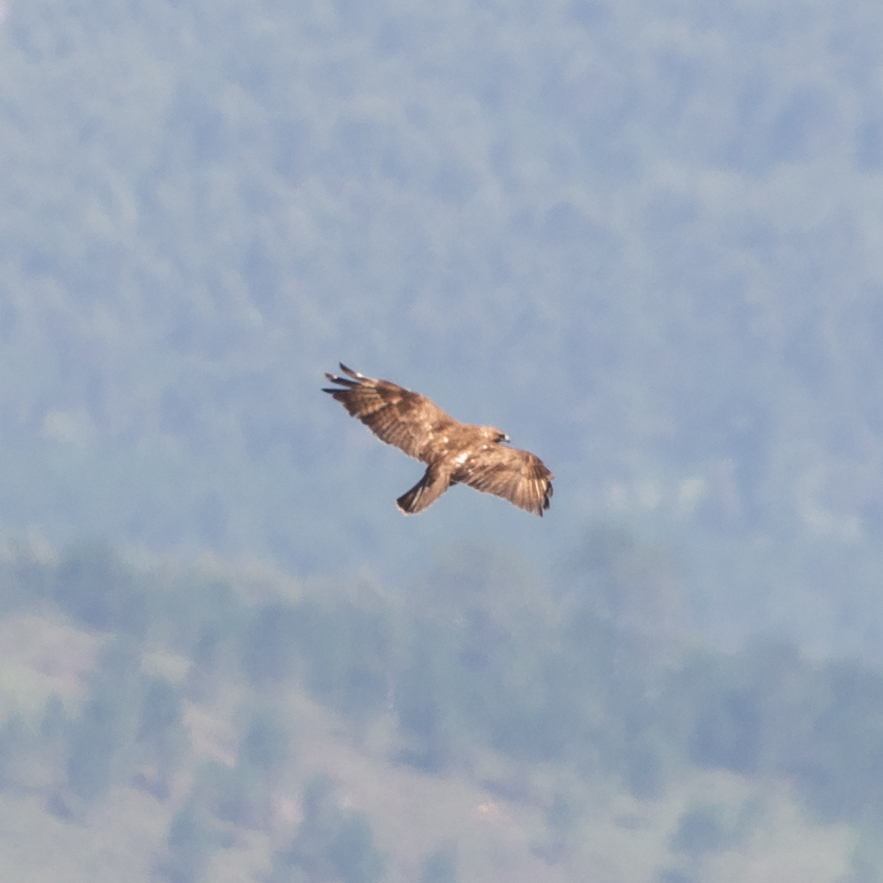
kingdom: Animalia
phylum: Chordata
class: Aves
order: Accipitriformes
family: Accipitridae
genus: Buteo
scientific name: Buteo buteo
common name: Common buzzard
